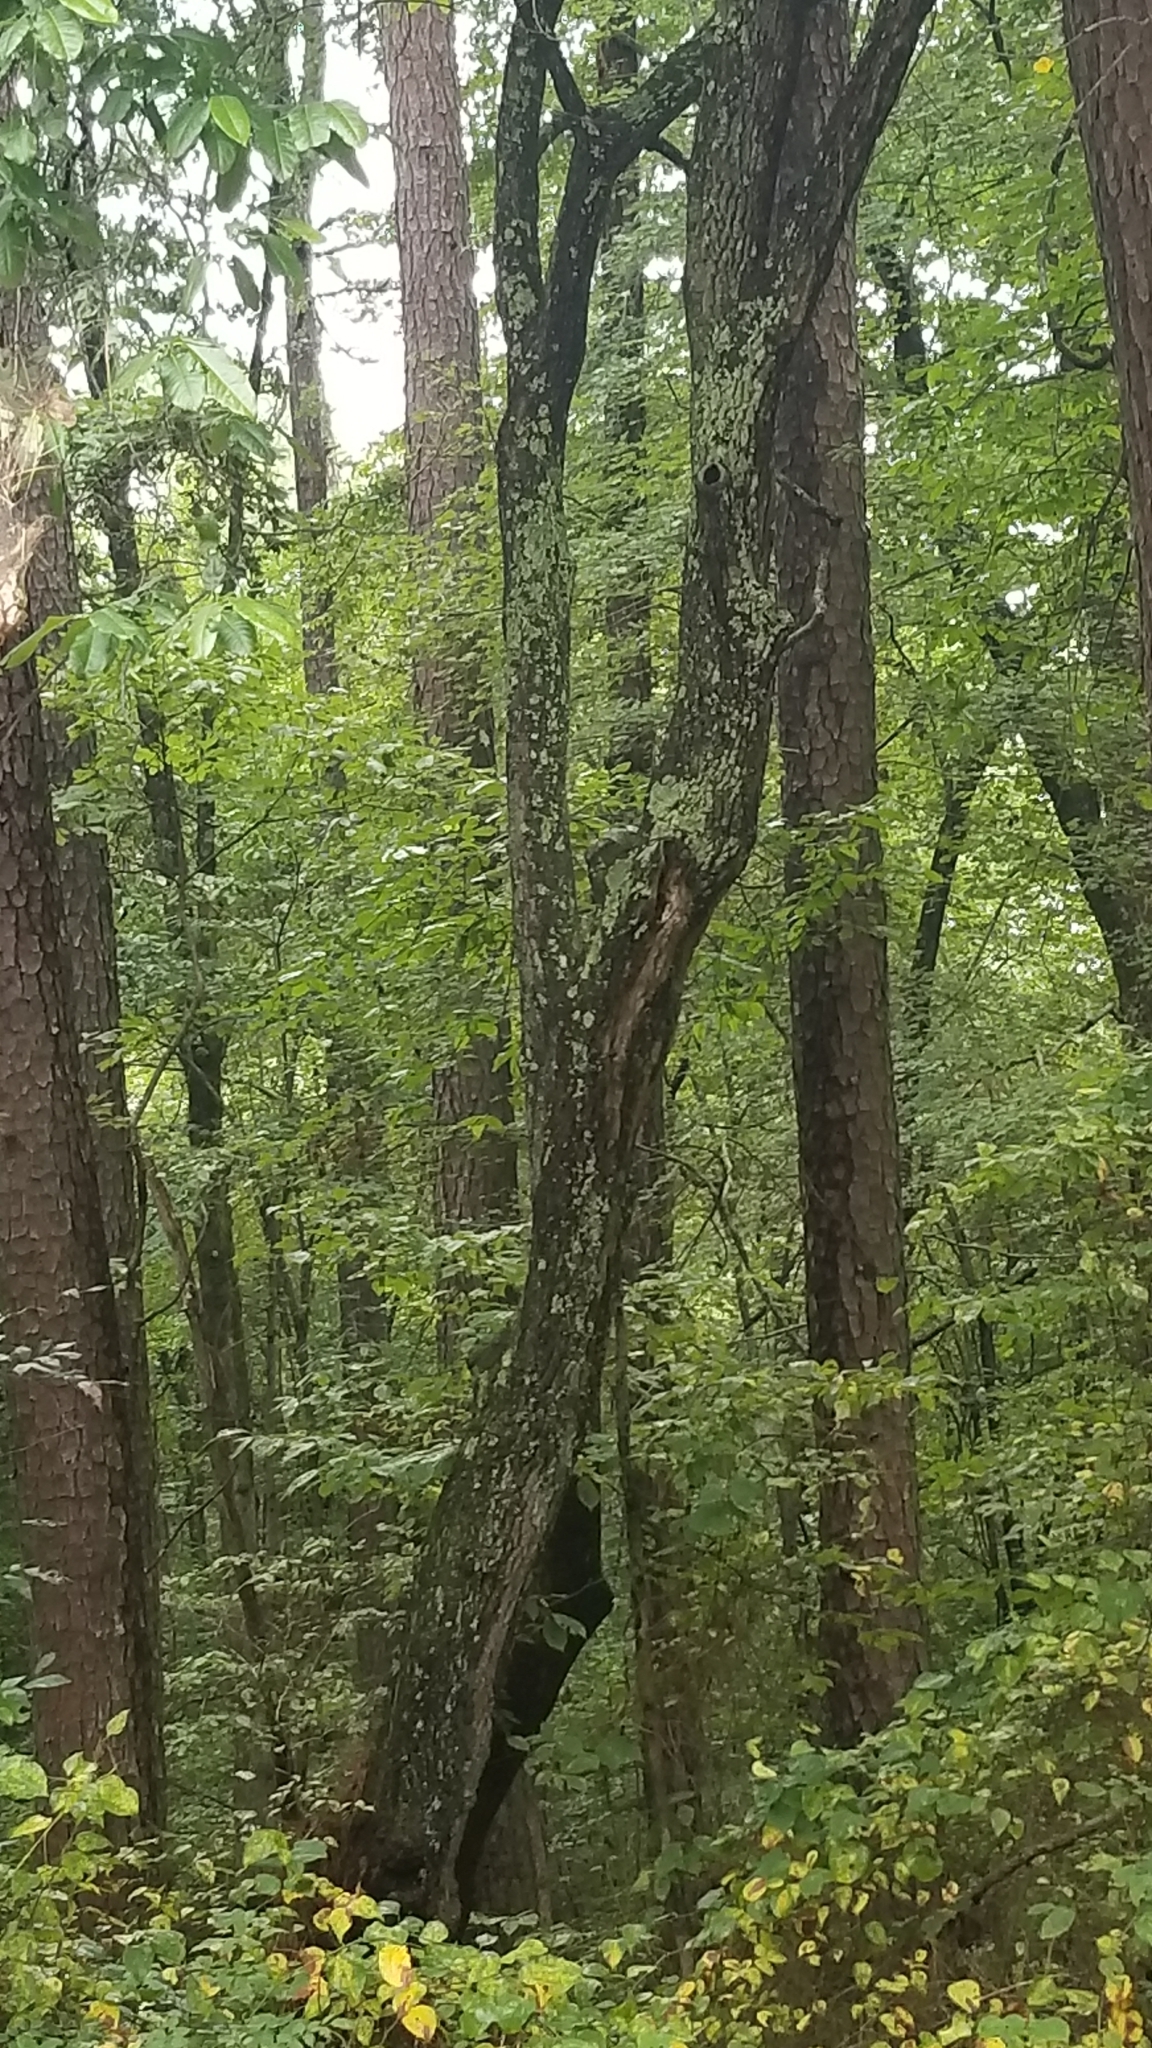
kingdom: Plantae
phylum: Tracheophyta
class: Magnoliopsida
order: Ericales
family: Ericaceae
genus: Oxydendrum
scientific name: Oxydendrum arboreum
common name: Sourwood
